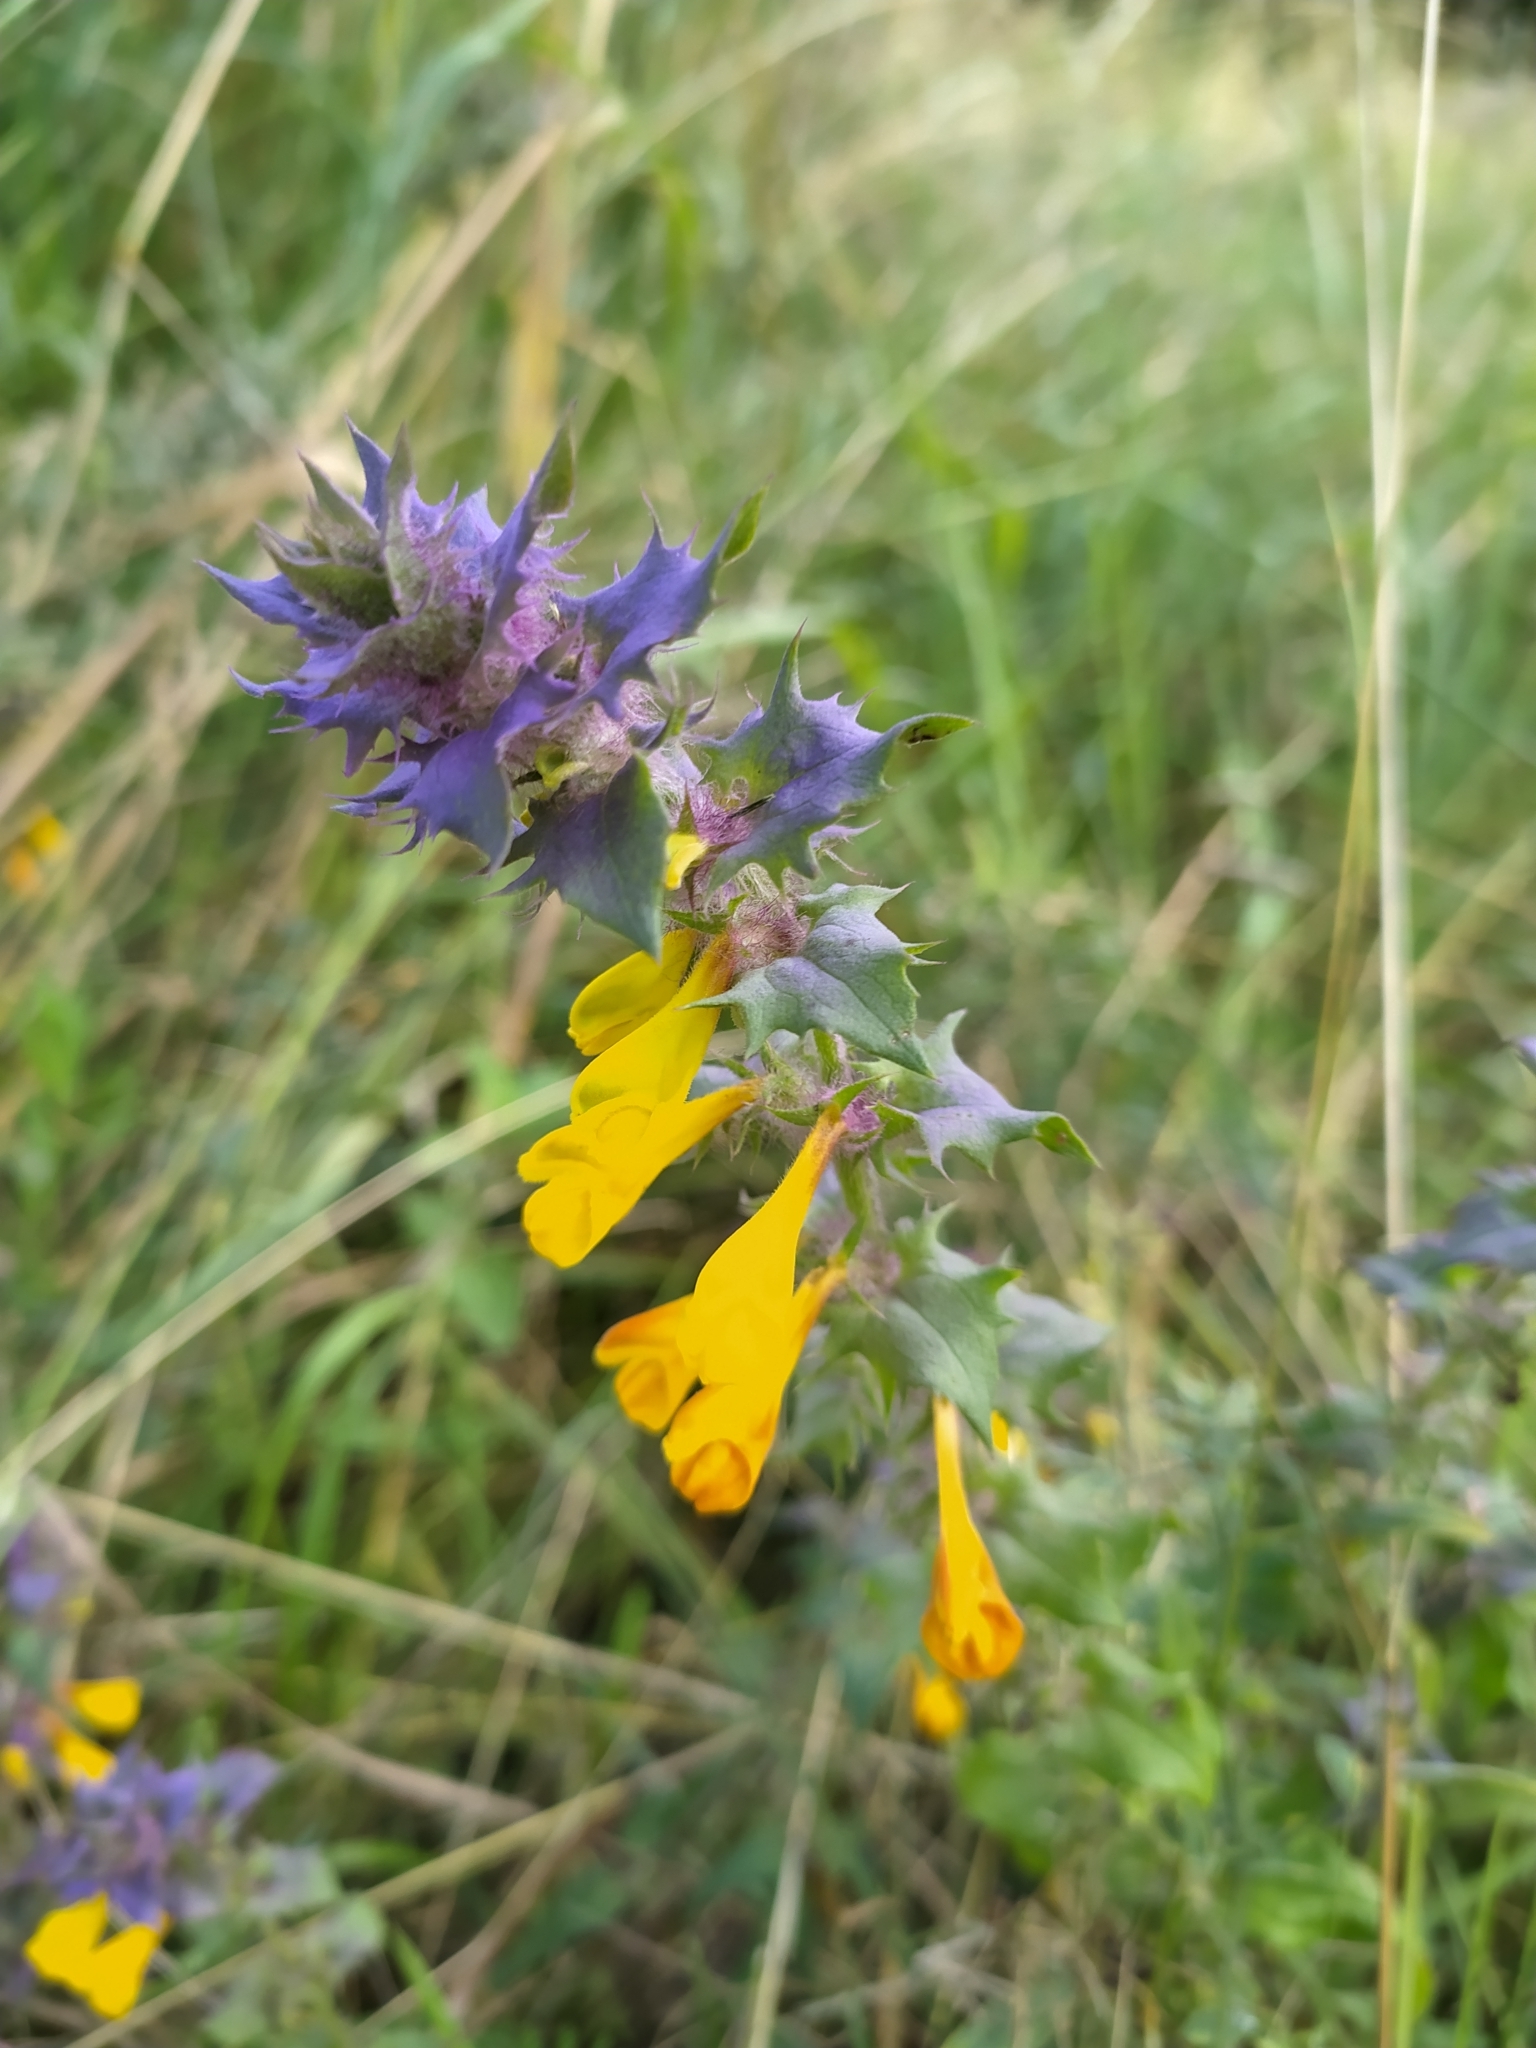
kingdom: Plantae
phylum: Tracheophyta
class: Magnoliopsida
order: Lamiales
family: Orobanchaceae
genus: Melampyrum
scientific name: Melampyrum nemorosum
